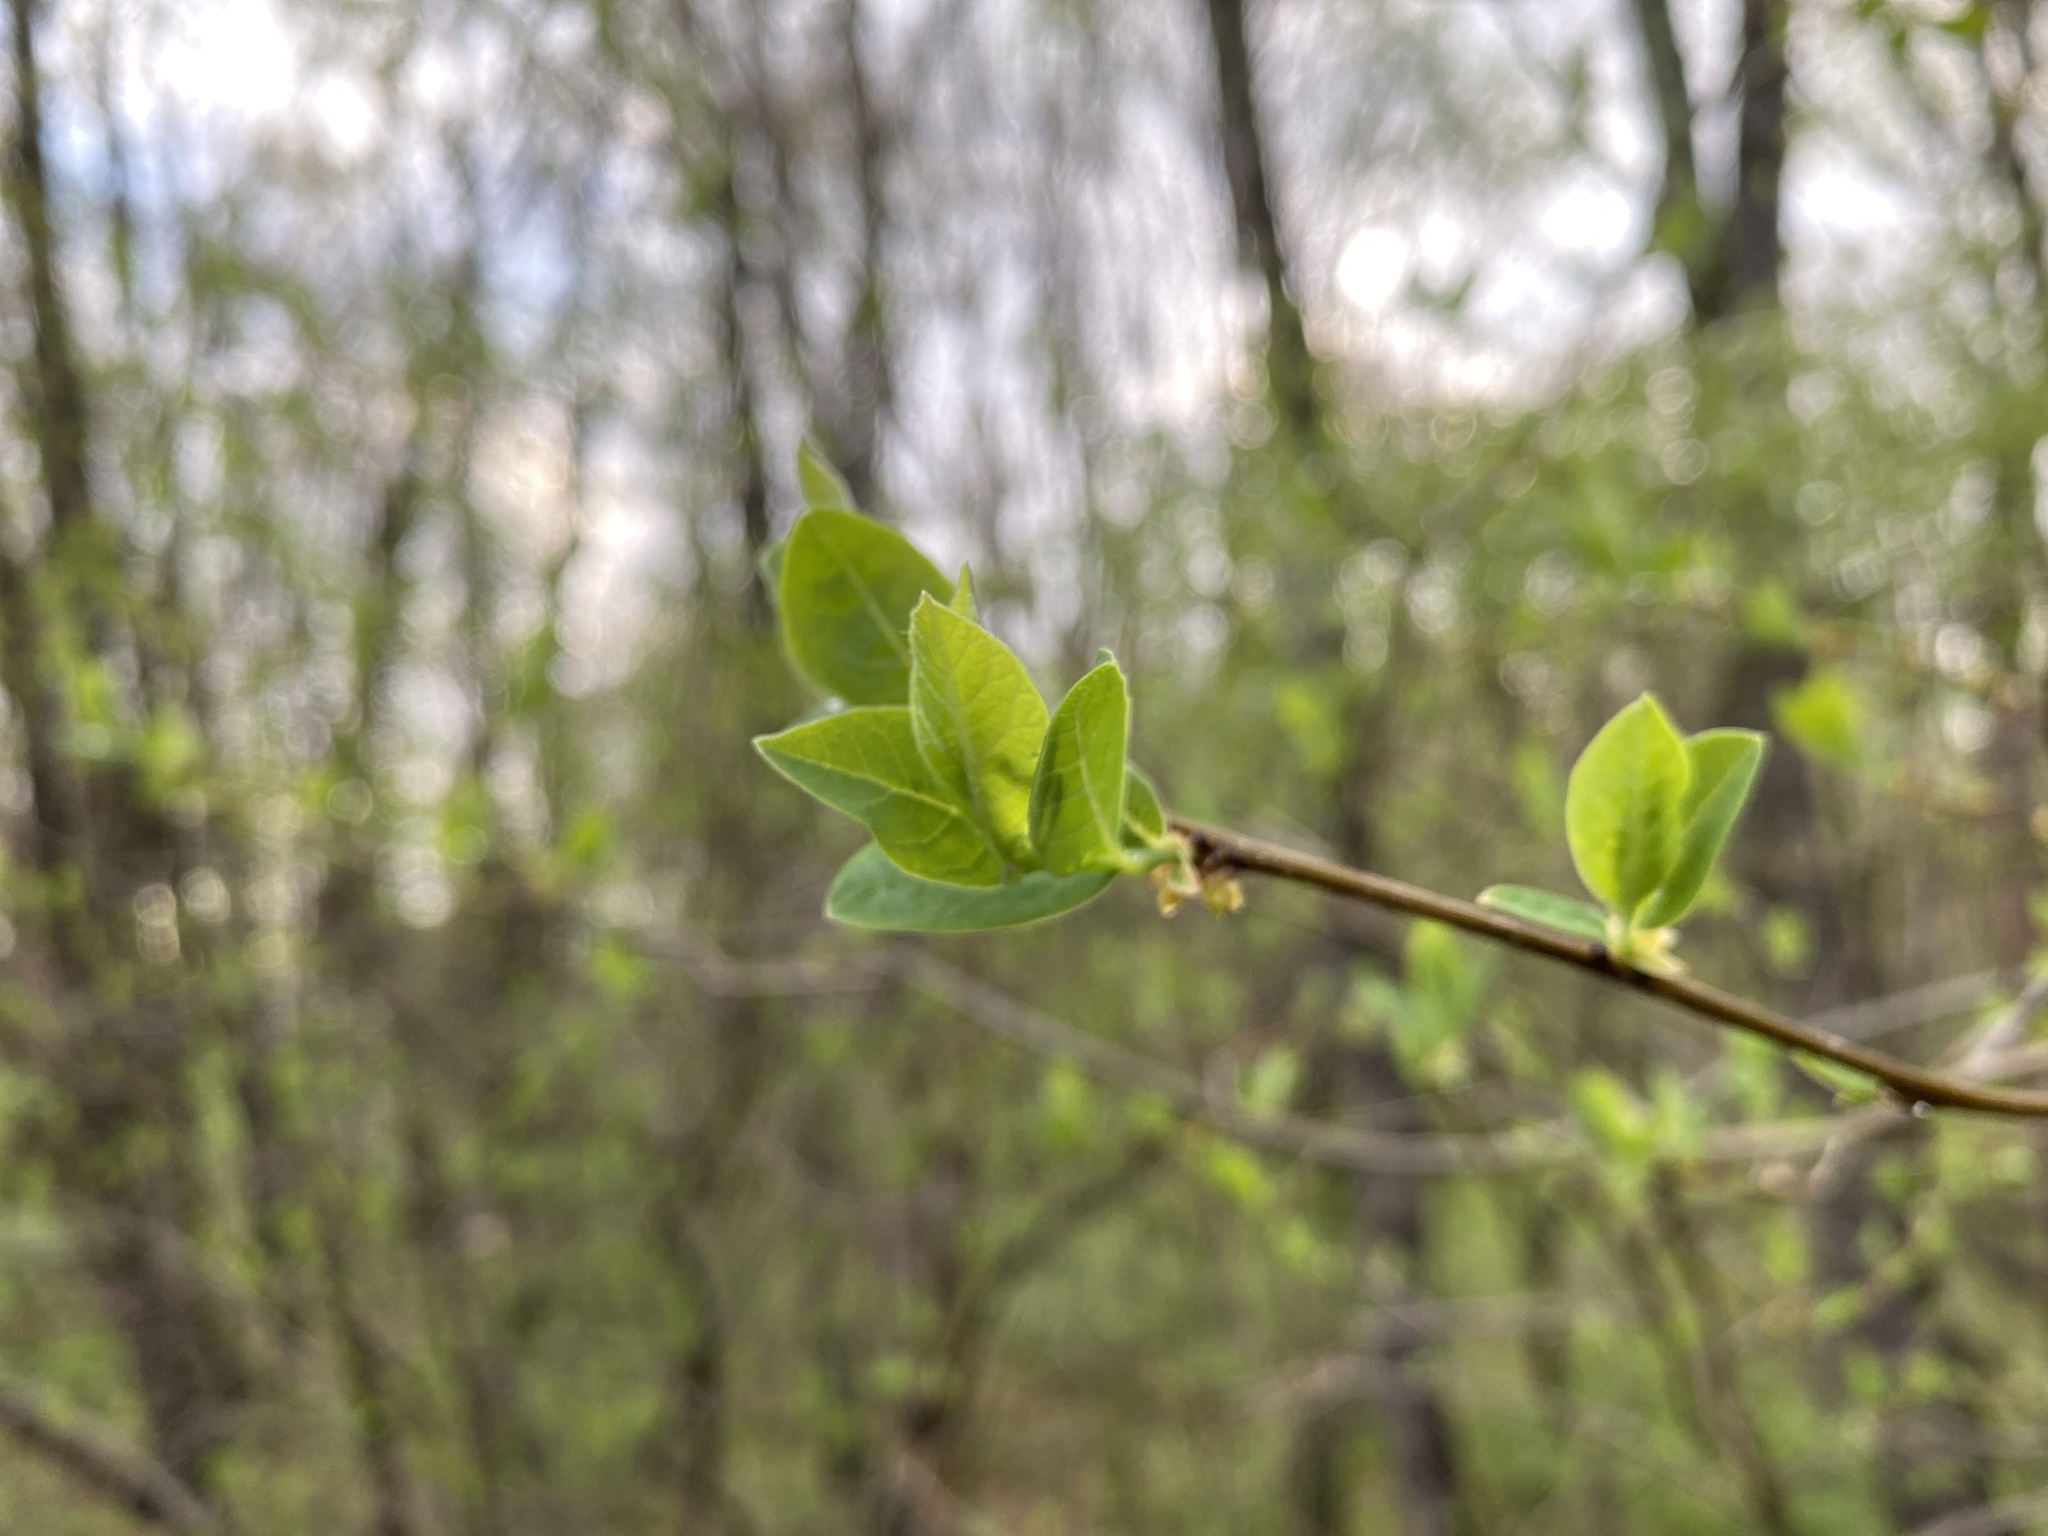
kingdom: Plantae
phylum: Tracheophyta
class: Magnoliopsida
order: Laurales
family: Lauraceae
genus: Lindera
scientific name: Lindera benzoin
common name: Spicebush
